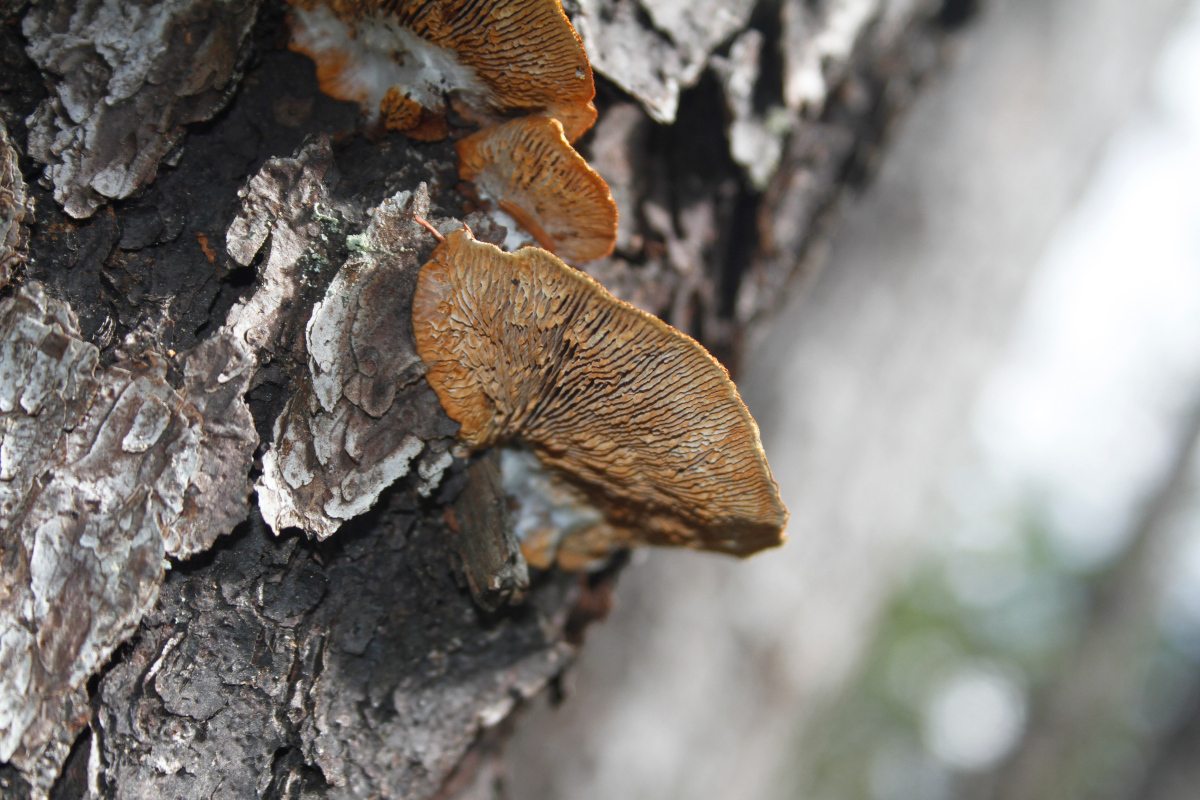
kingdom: Fungi
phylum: Basidiomycota
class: Agaricomycetes
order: Gloeophyllales
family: Gloeophyllaceae
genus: Gloeophyllum
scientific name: Gloeophyllum sepiarium
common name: Conifer mazegill
